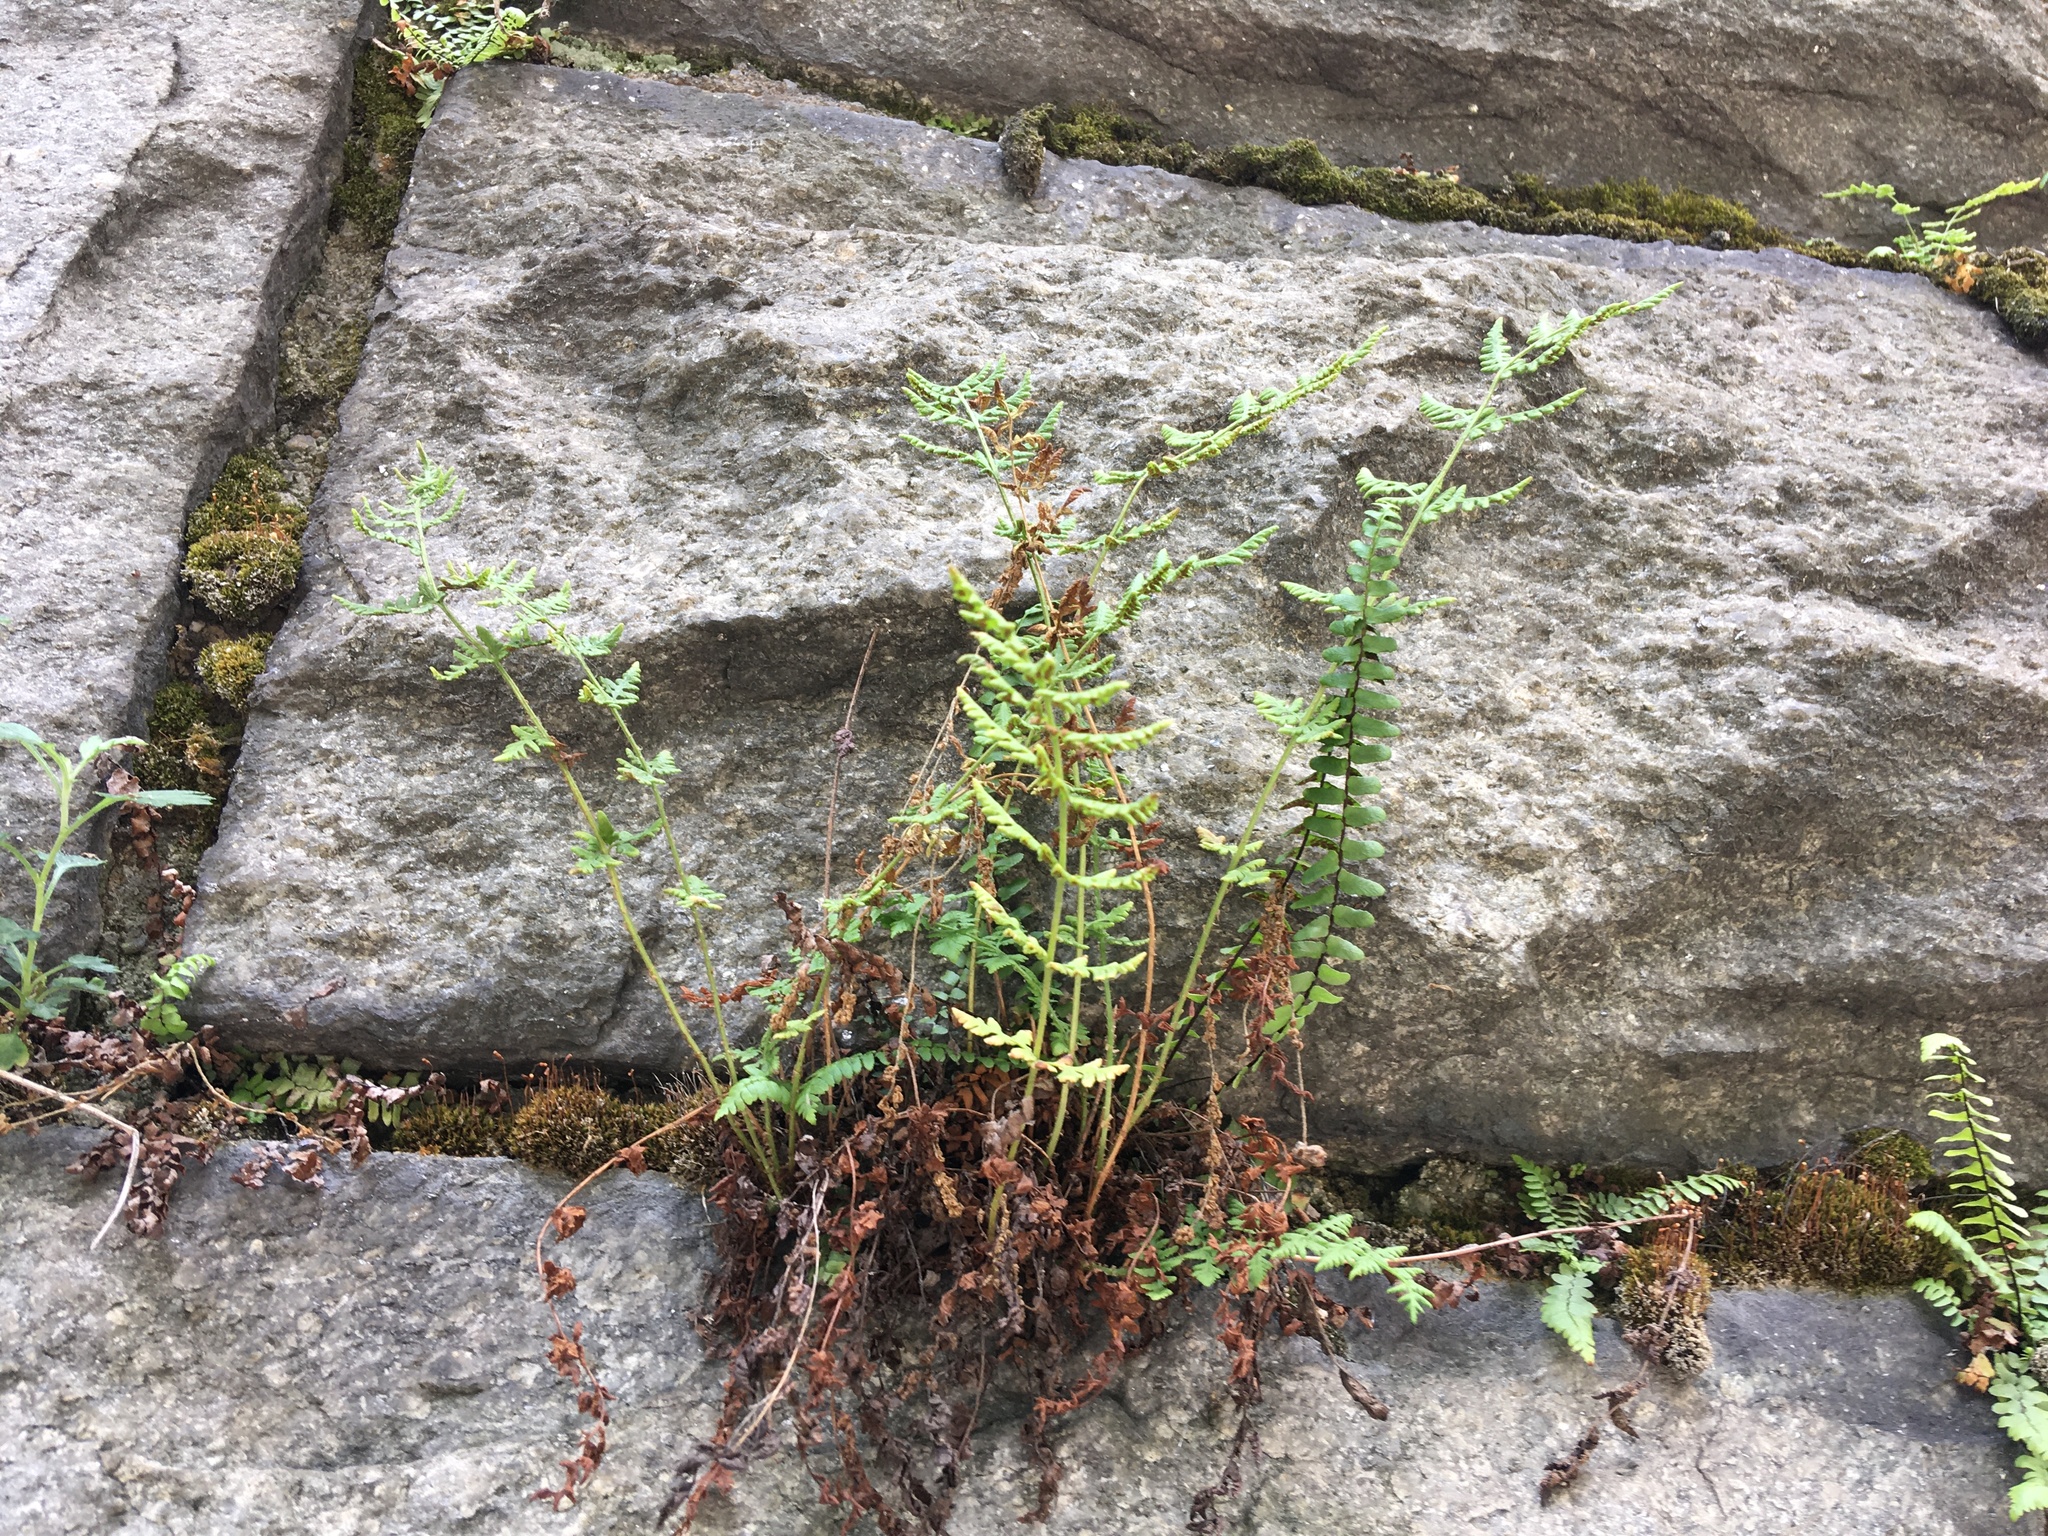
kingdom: Plantae
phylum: Tracheophyta
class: Polypodiopsida
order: Polypodiales
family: Woodsiaceae
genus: Physematium
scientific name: Physematium obtusum
